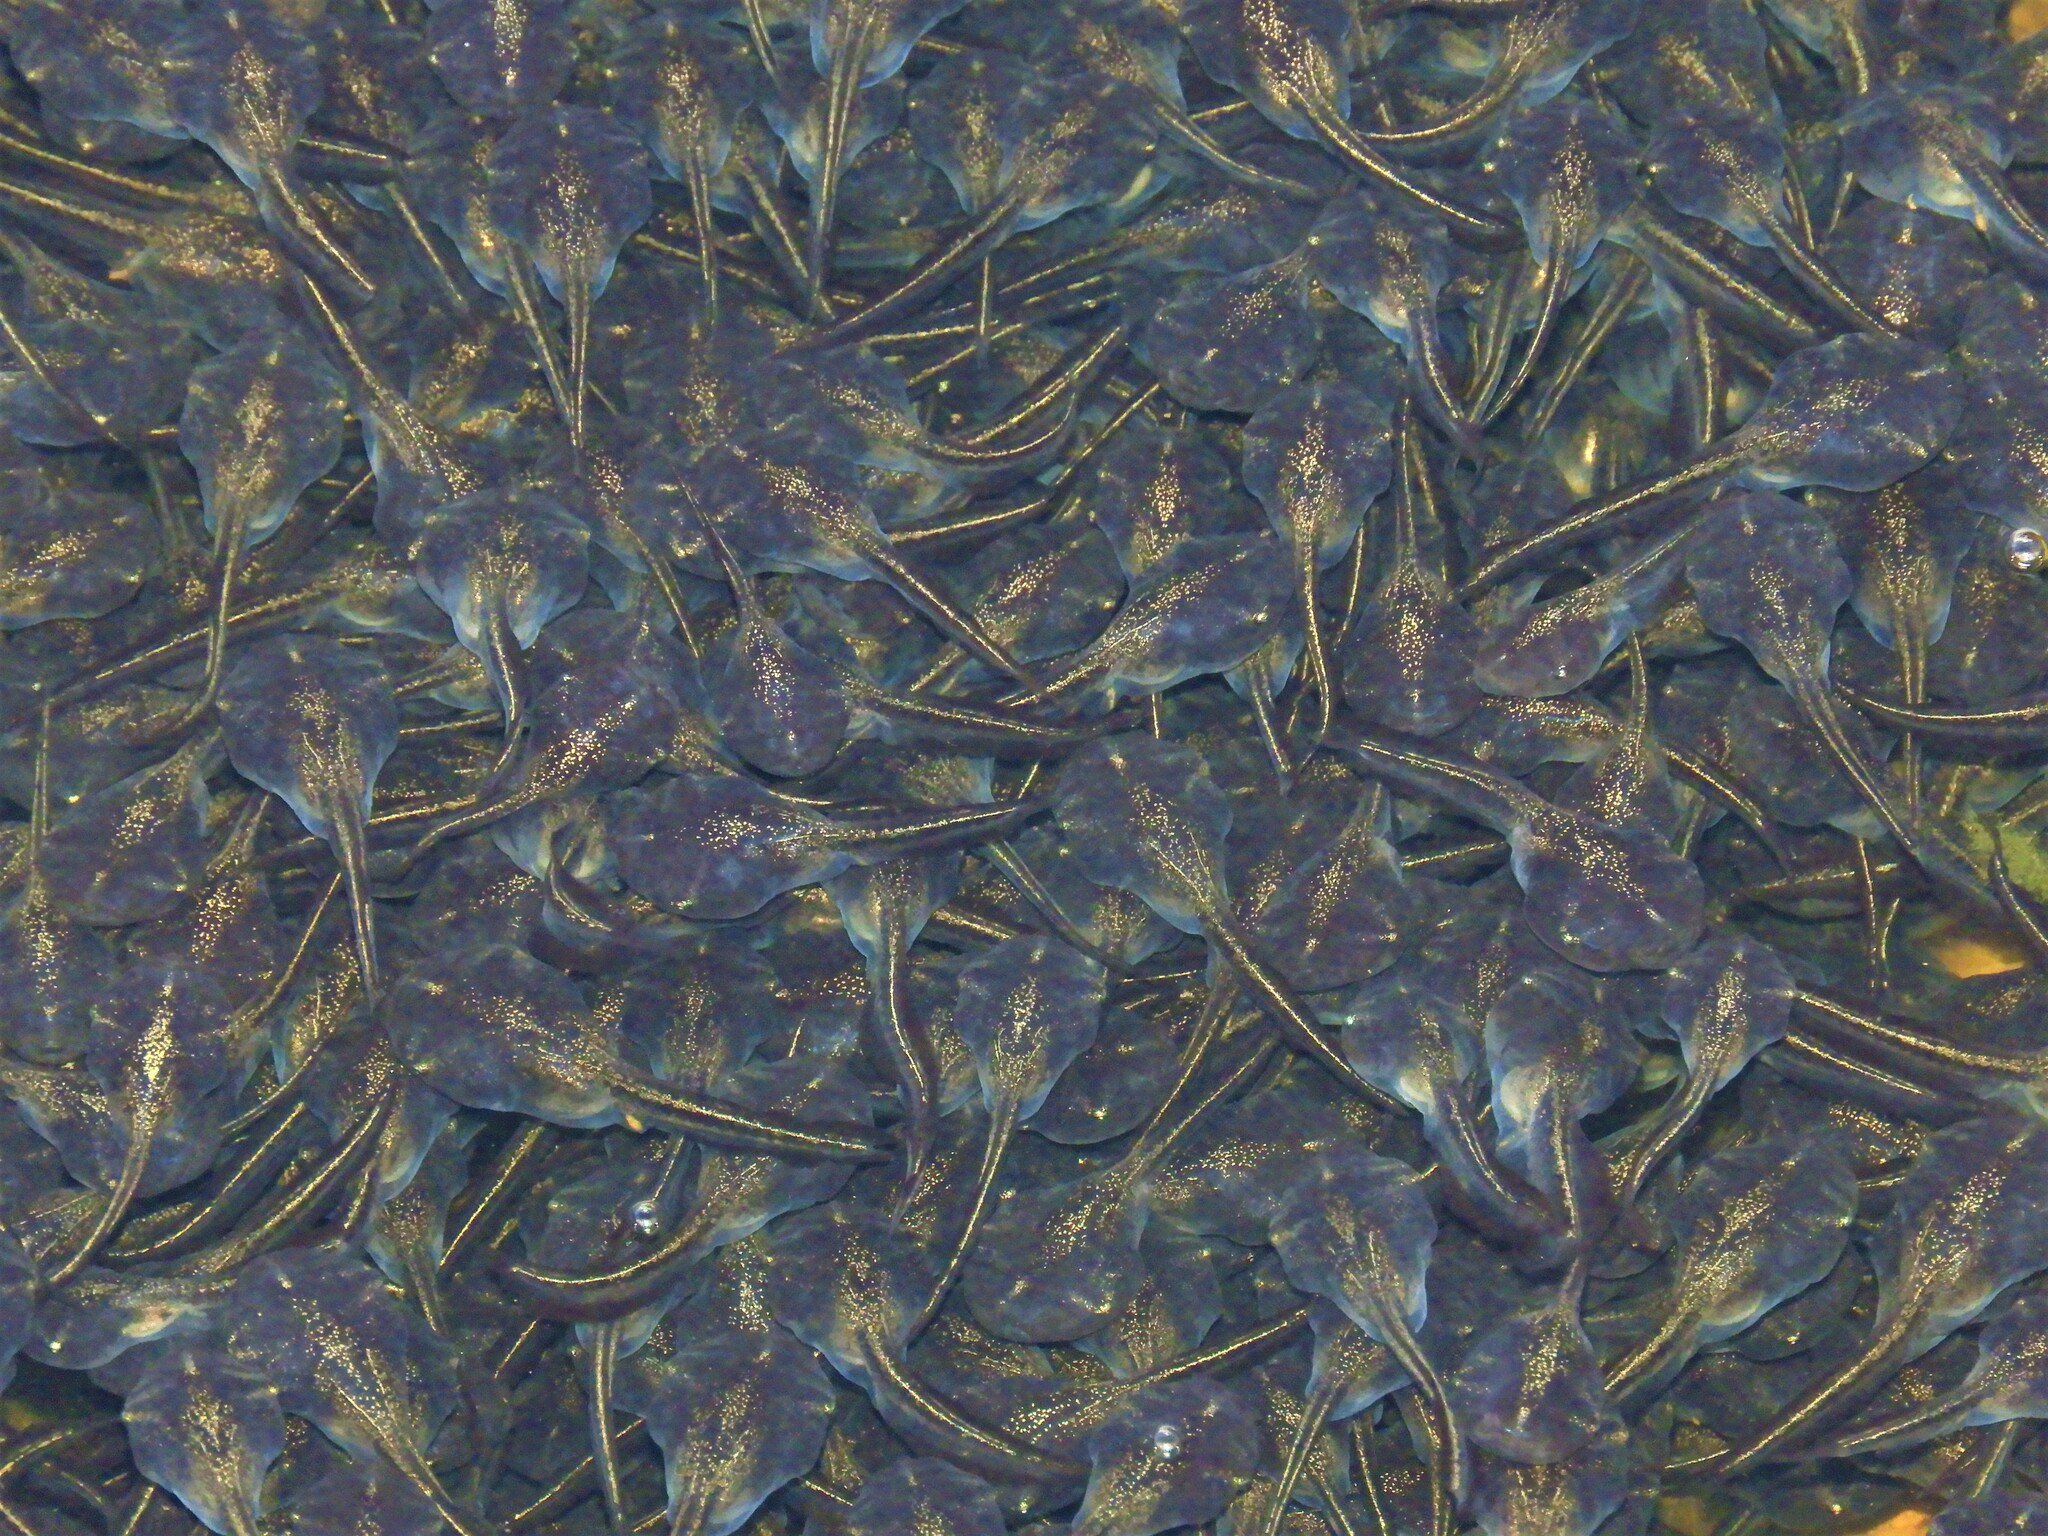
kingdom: Animalia
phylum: Chordata
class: Amphibia
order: Anura
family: Microhylidae
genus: Phrynomantis
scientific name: Phrynomantis annectens
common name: Marbled rubber frog
